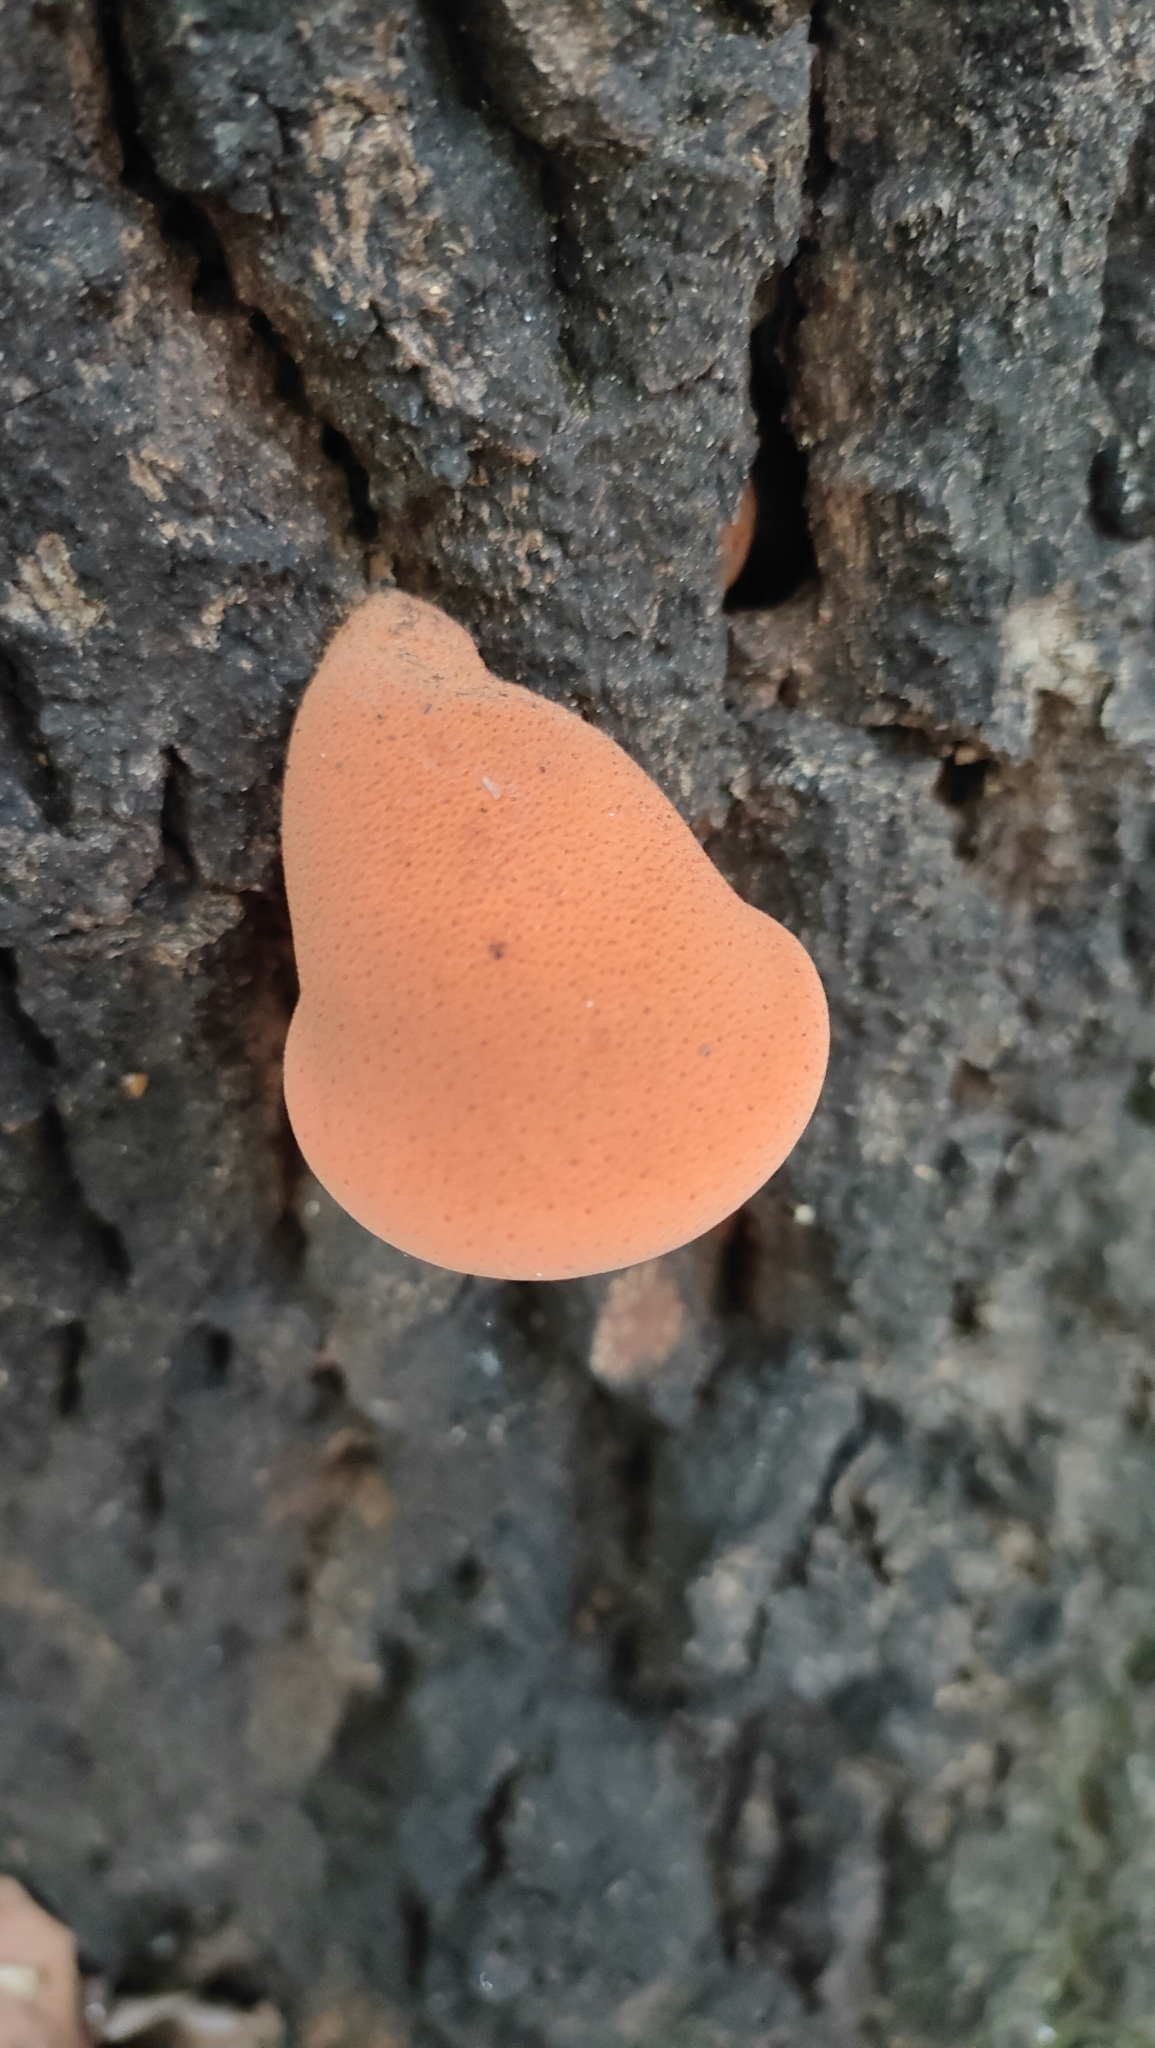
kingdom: Fungi
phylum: Basidiomycota
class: Agaricomycetes
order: Agaricales
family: Fistulinaceae
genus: Fistulina
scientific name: Fistulina hepatica
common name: Beef-steak fungus
